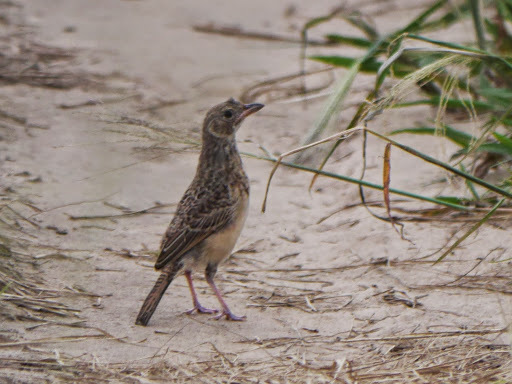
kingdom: Animalia
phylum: Chordata
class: Aves
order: Passeriformes
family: Alaudidae
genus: Mirafra
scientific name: Mirafra rufocinnamomea
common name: Flappet lark
